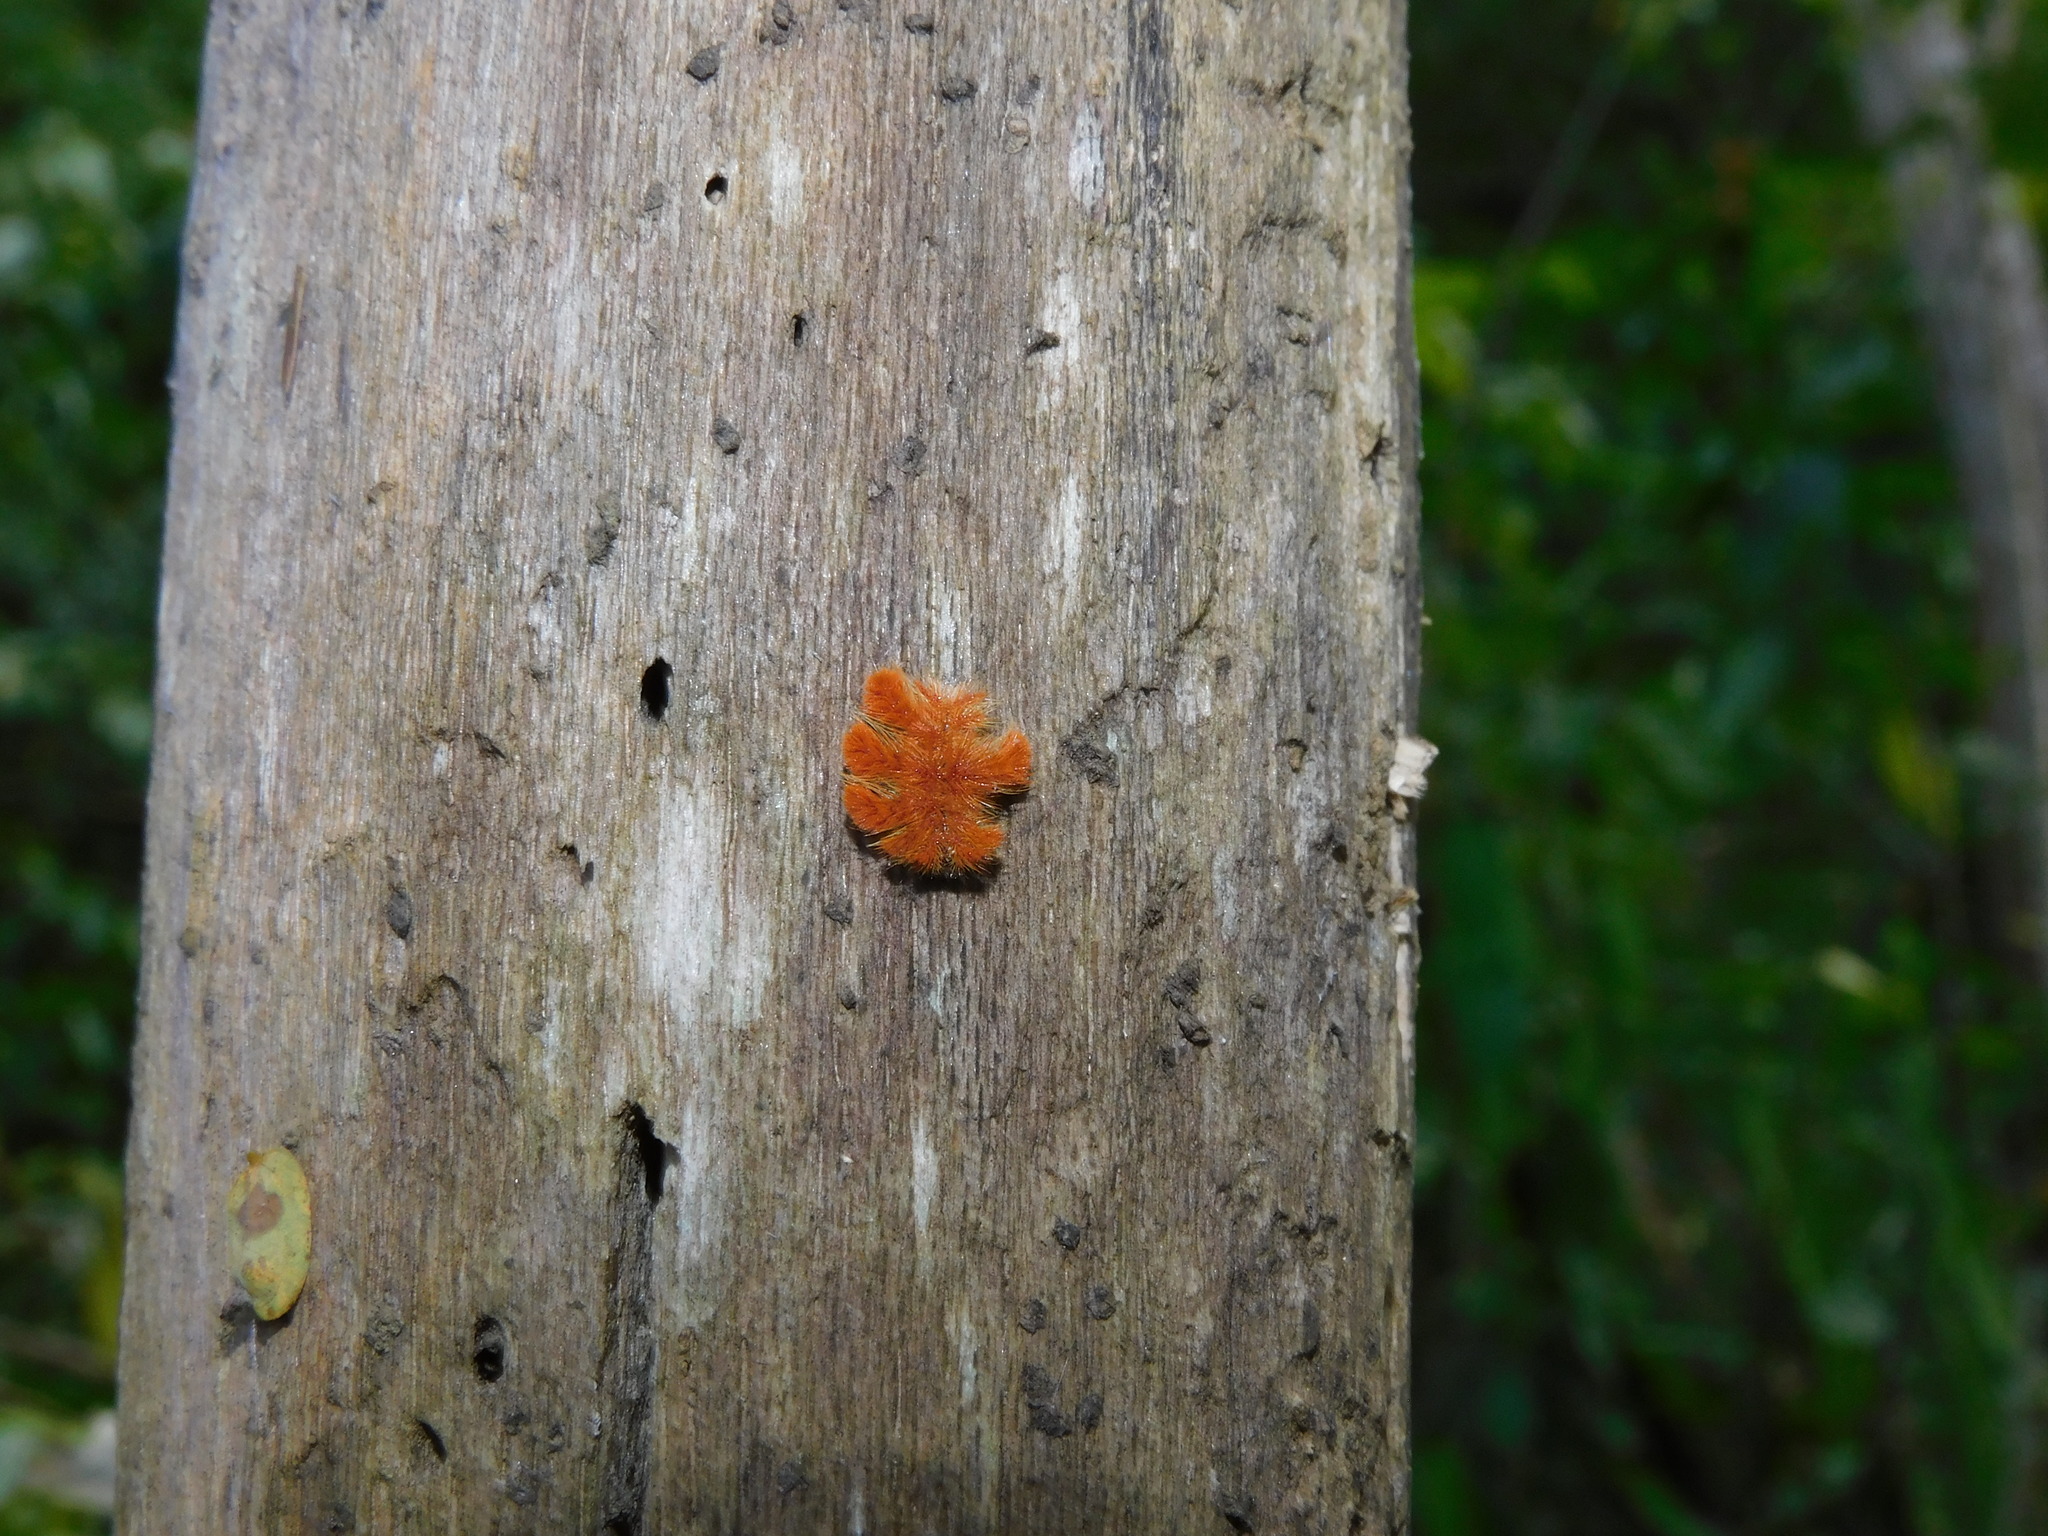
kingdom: Animalia
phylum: Arthropoda
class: Insecta
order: Lepidoptera
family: Limacodidae
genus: Phobetron
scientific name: Phobetron hipparchia
